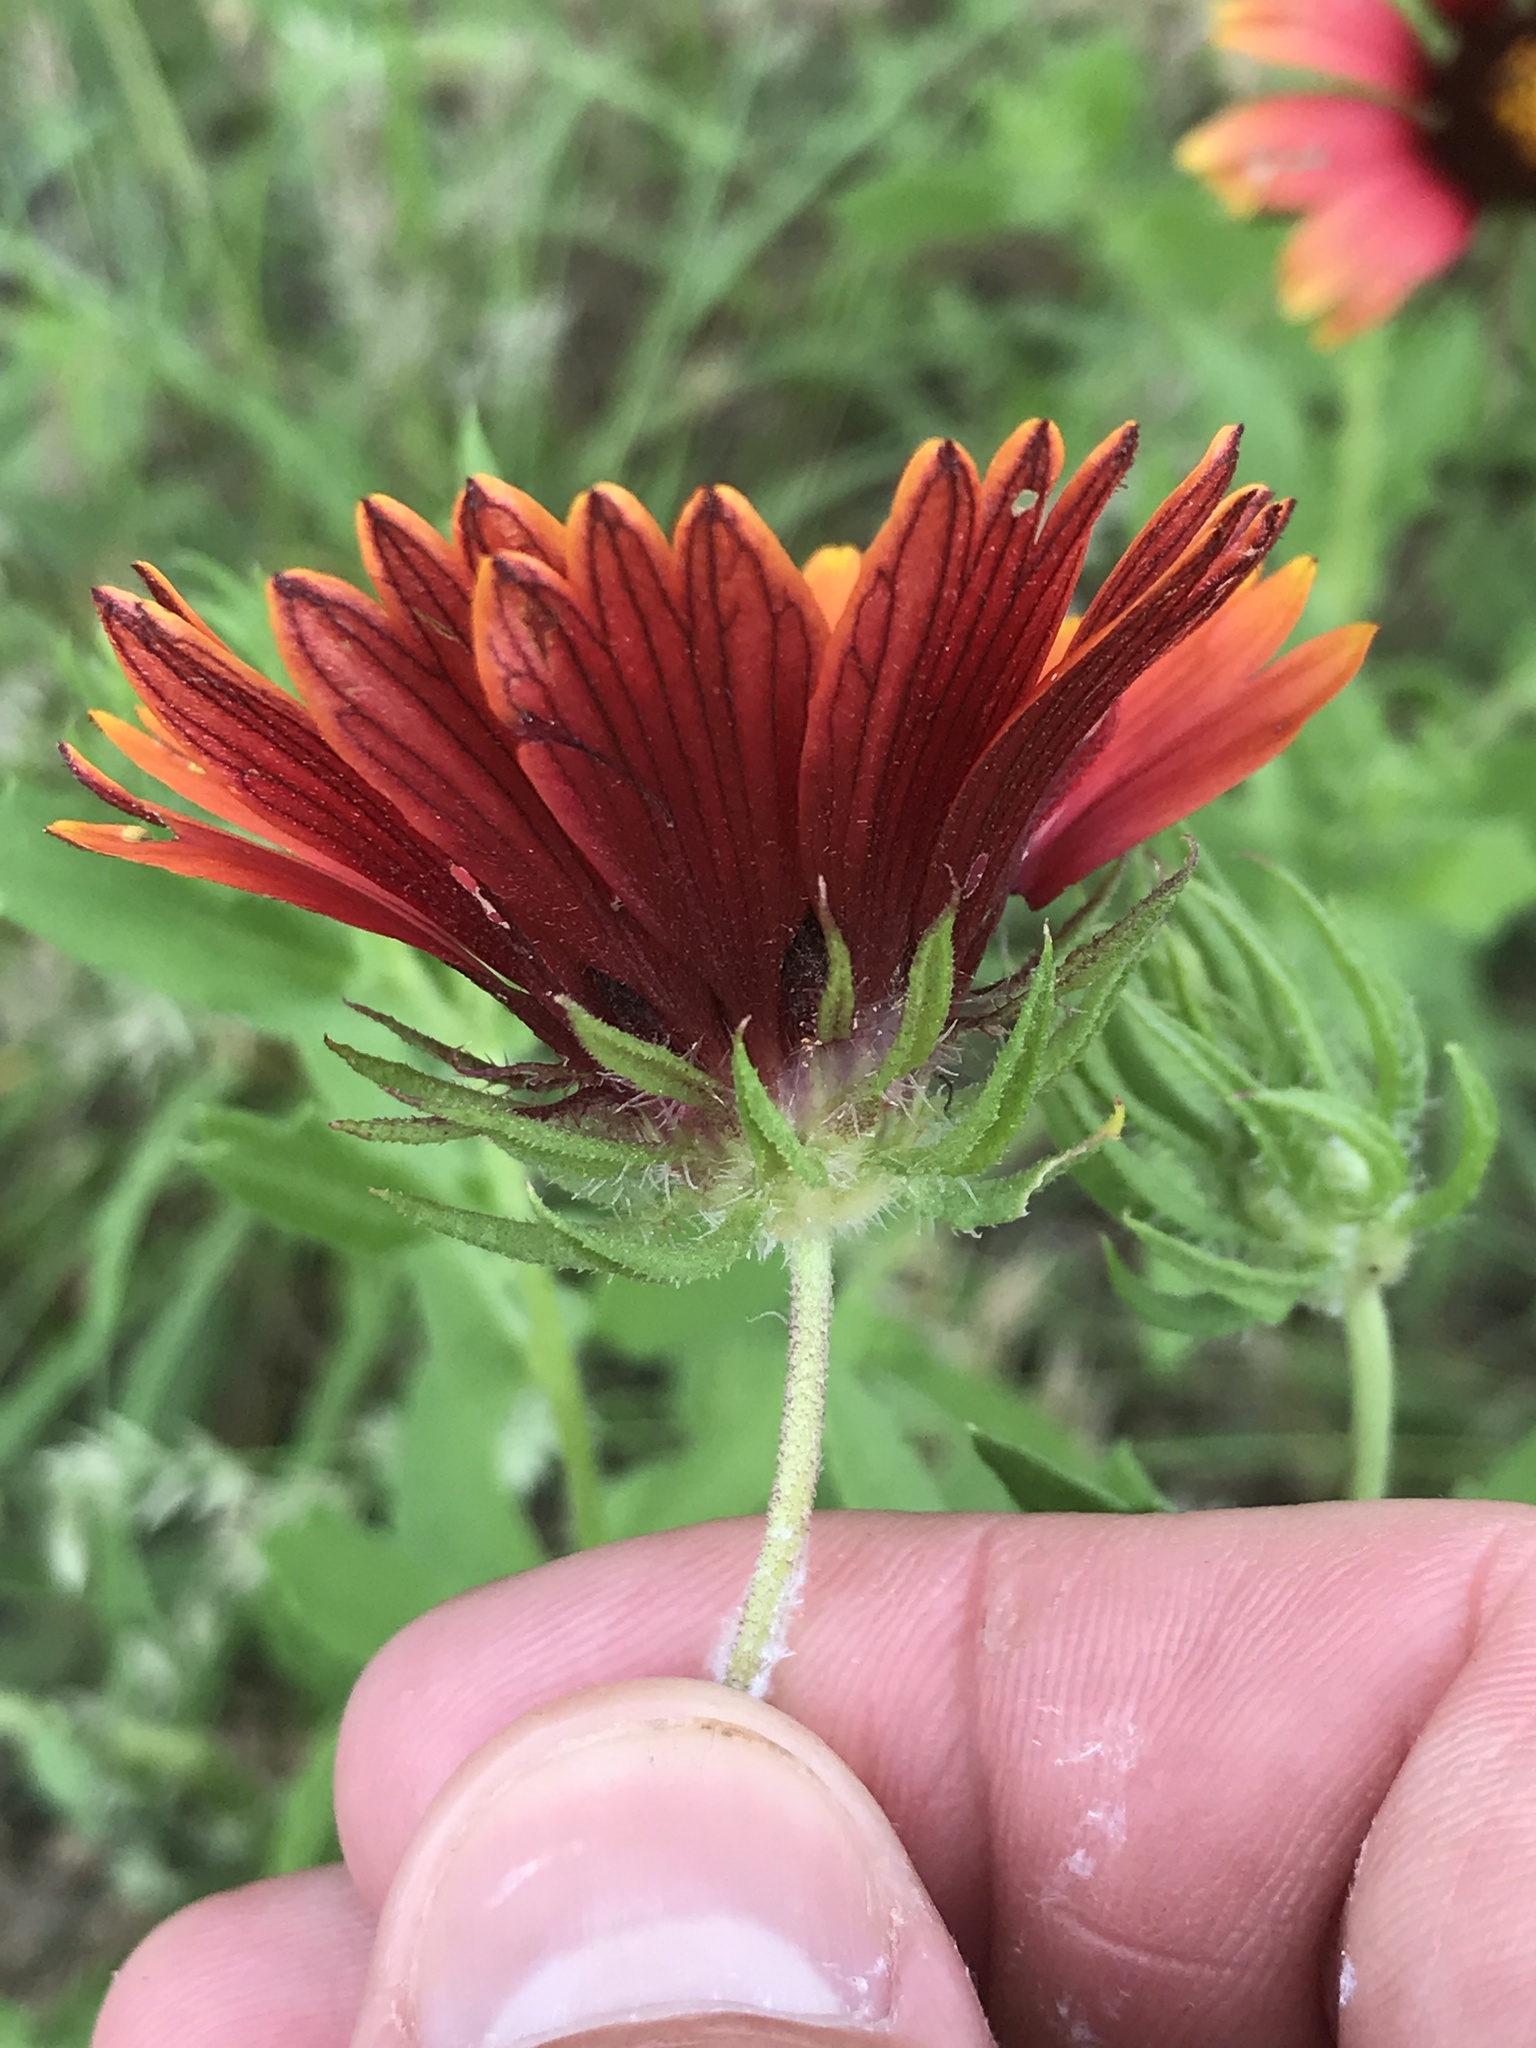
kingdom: Plantae
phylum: Tracheophyta
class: Magnoliopsida
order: Asterales
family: Asteraceae
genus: Gaillardia
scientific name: Gaillardia amblyodon
